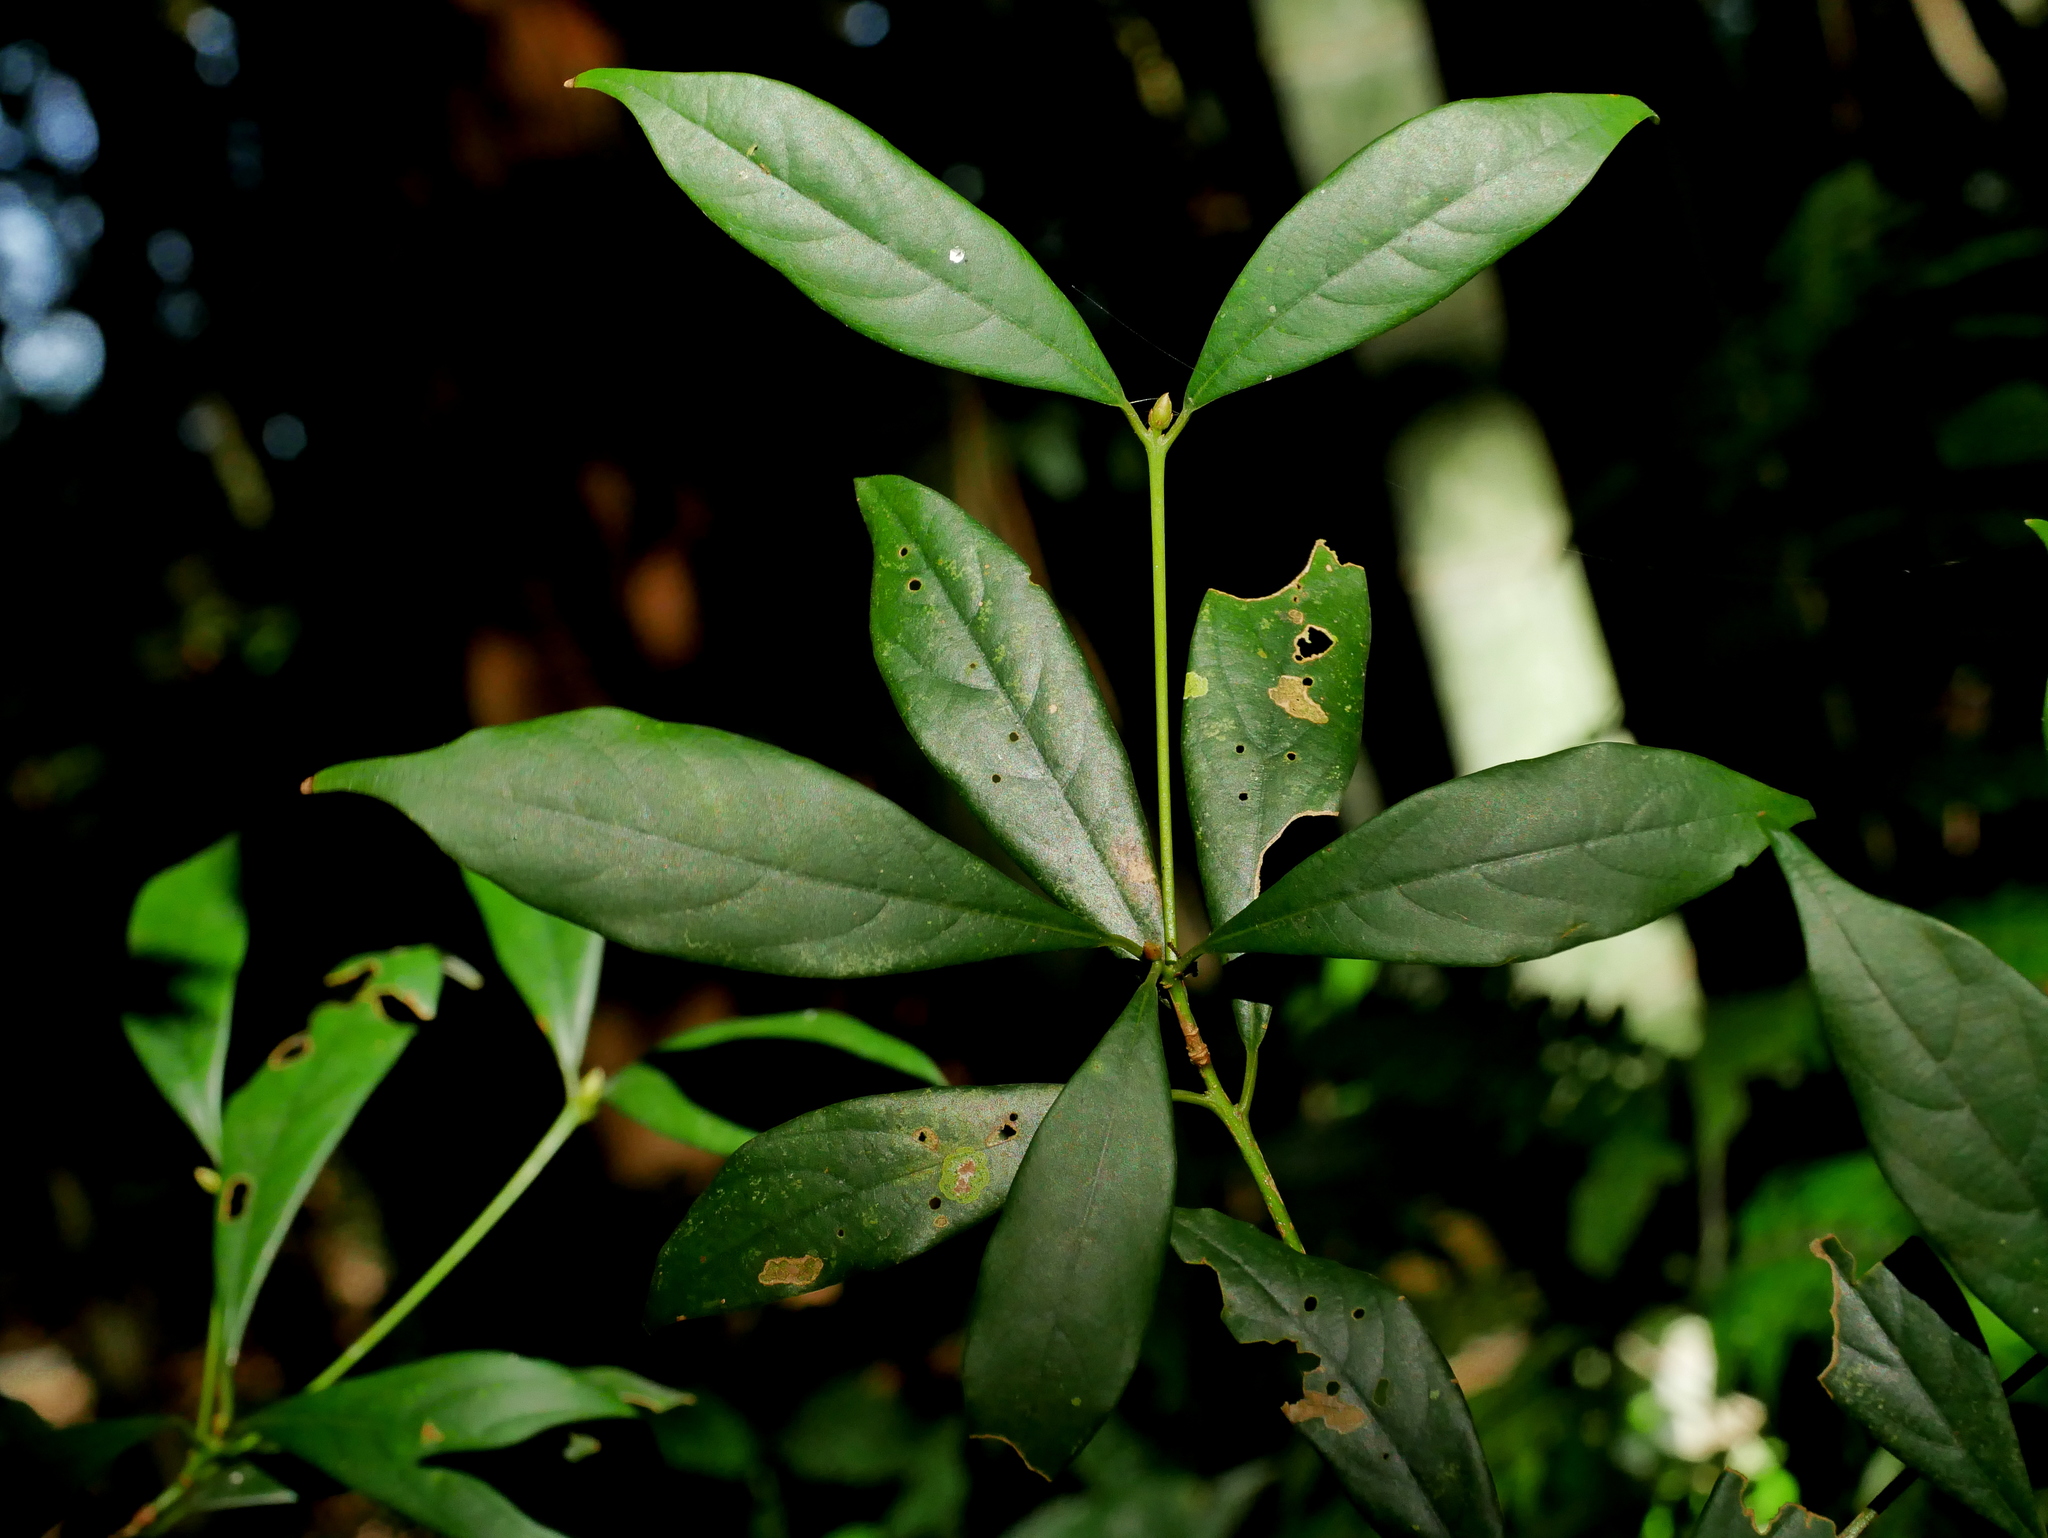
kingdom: Plantae
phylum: Tracheophyta
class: Magnoliopsida
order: Laurales
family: Lauraceae
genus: Machilus
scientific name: Machilus konishii
